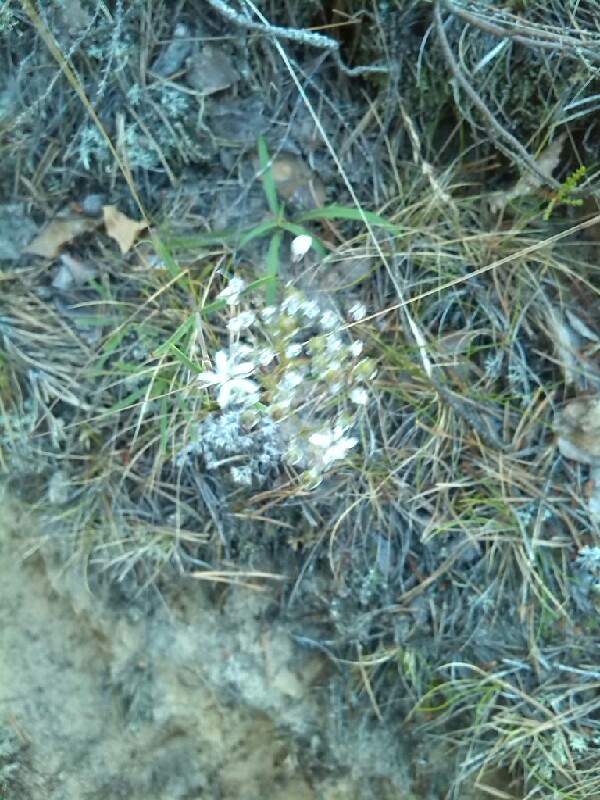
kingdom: Plantae
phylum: Tracheophyta
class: Magnoliopsida
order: Caryophyllales
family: Caryophyllaceae
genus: Gypsophila
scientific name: Gypsophila fastigiata
